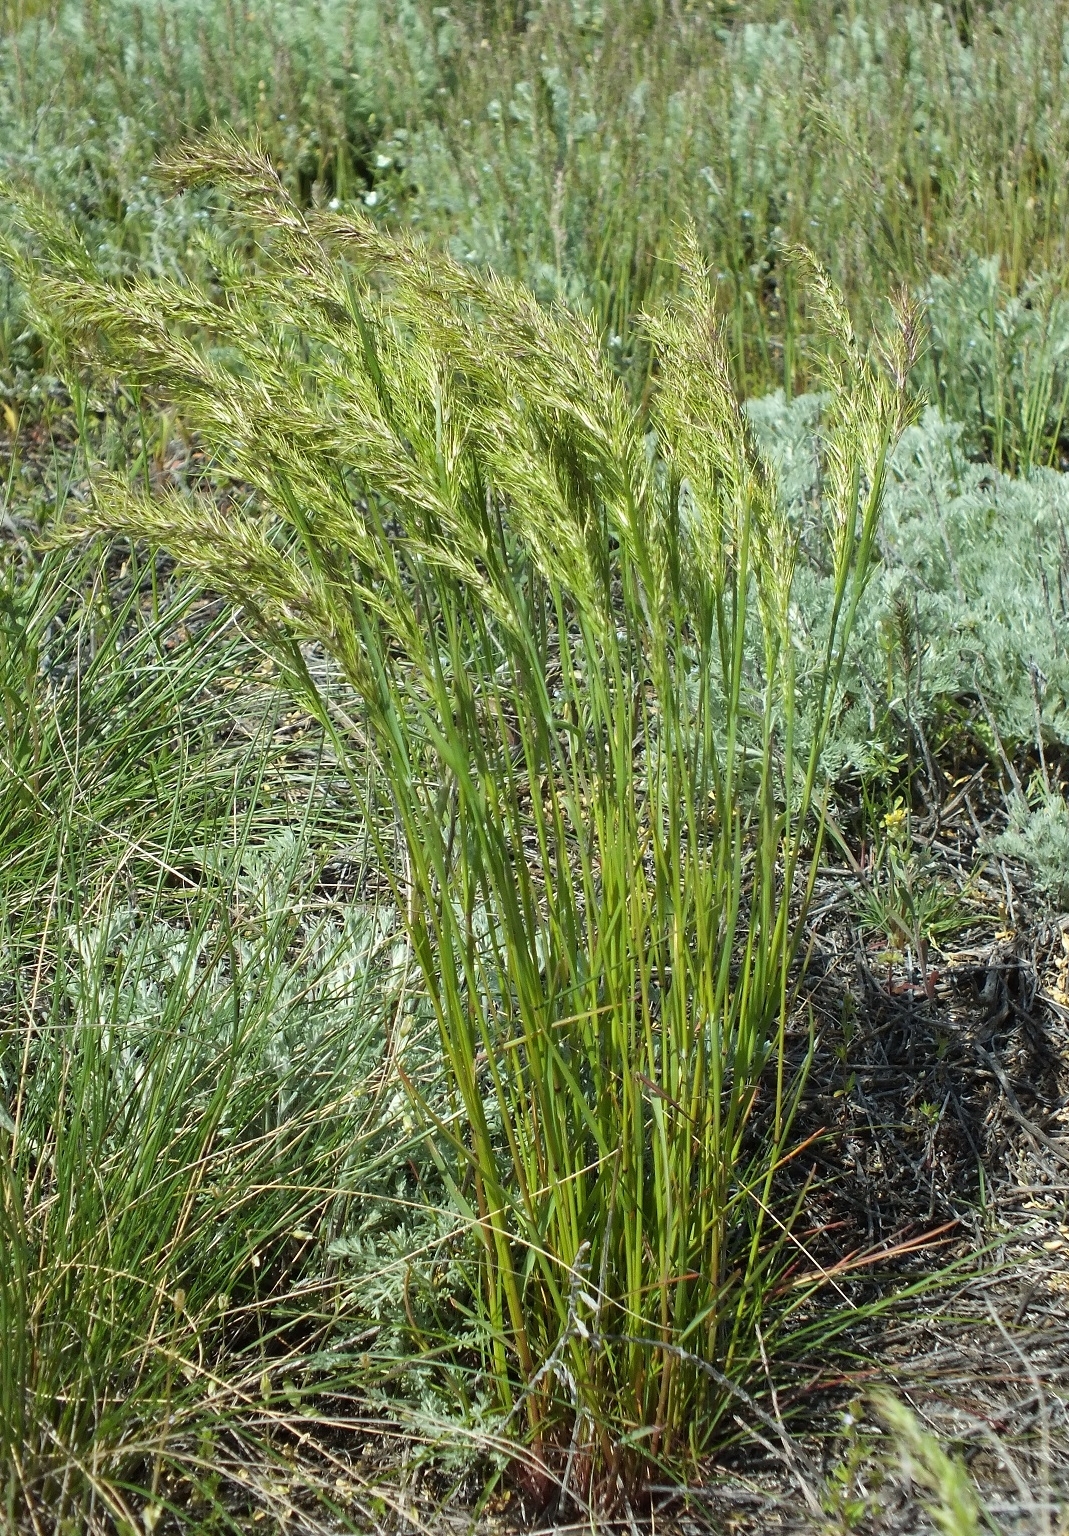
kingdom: Plantae
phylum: Tracheophyta
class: Liliopsida
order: Poales
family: Poaceae
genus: Poa
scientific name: Poa bulbosa
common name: Bulbous bluegrass
